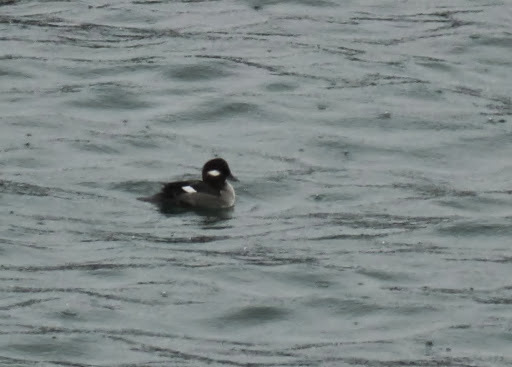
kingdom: Animalia
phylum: Chordata
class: Aves
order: Anseriformes
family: Anatidae
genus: Bucephala
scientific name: Bucephala albeola
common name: Bufflehead
